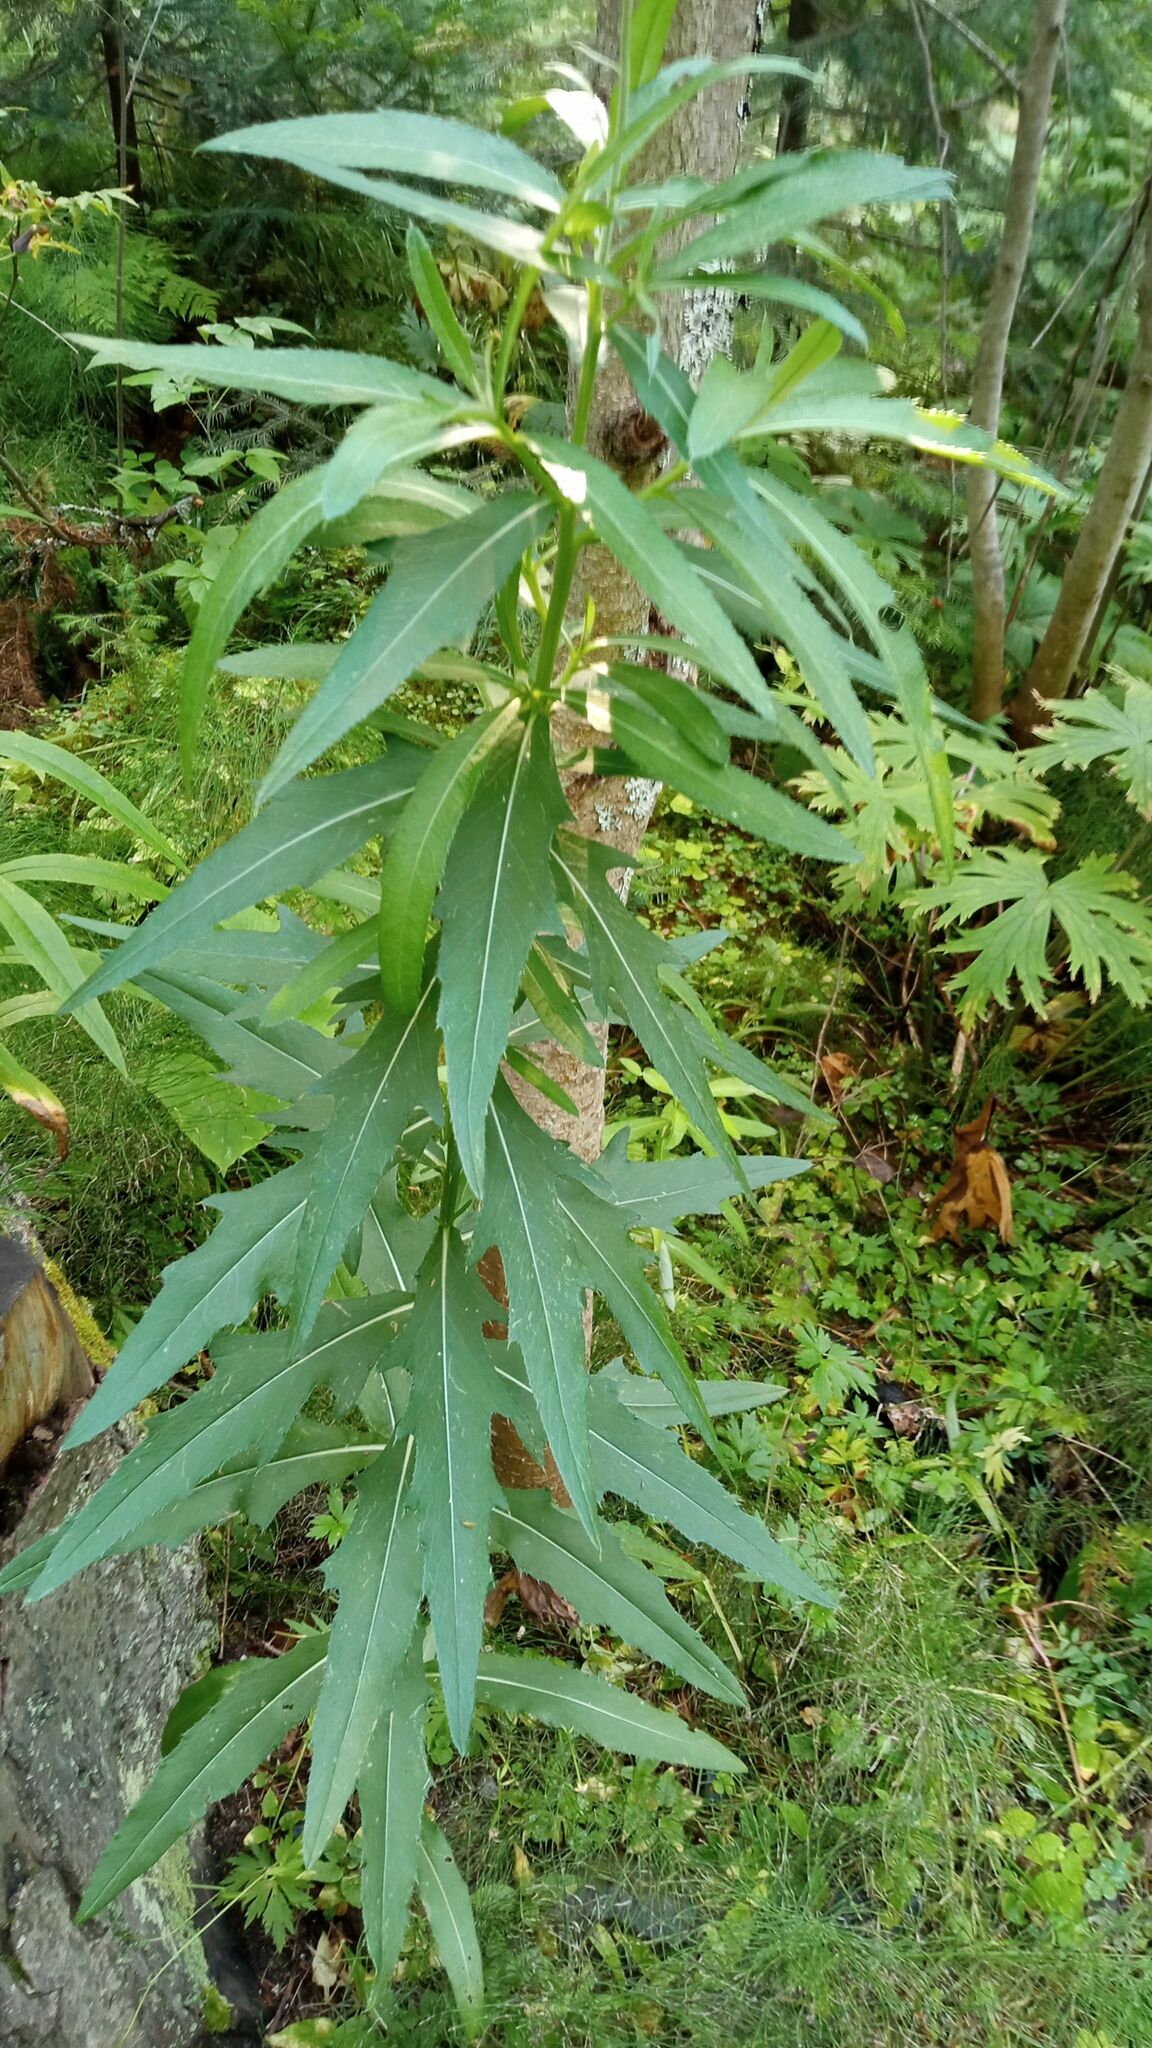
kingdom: Plantae
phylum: Tracheophyta
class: Magnoliopsida
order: Asterales
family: Asteraceae
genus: Cirsium
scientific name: Cirsium arvense
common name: Creeping thistle
